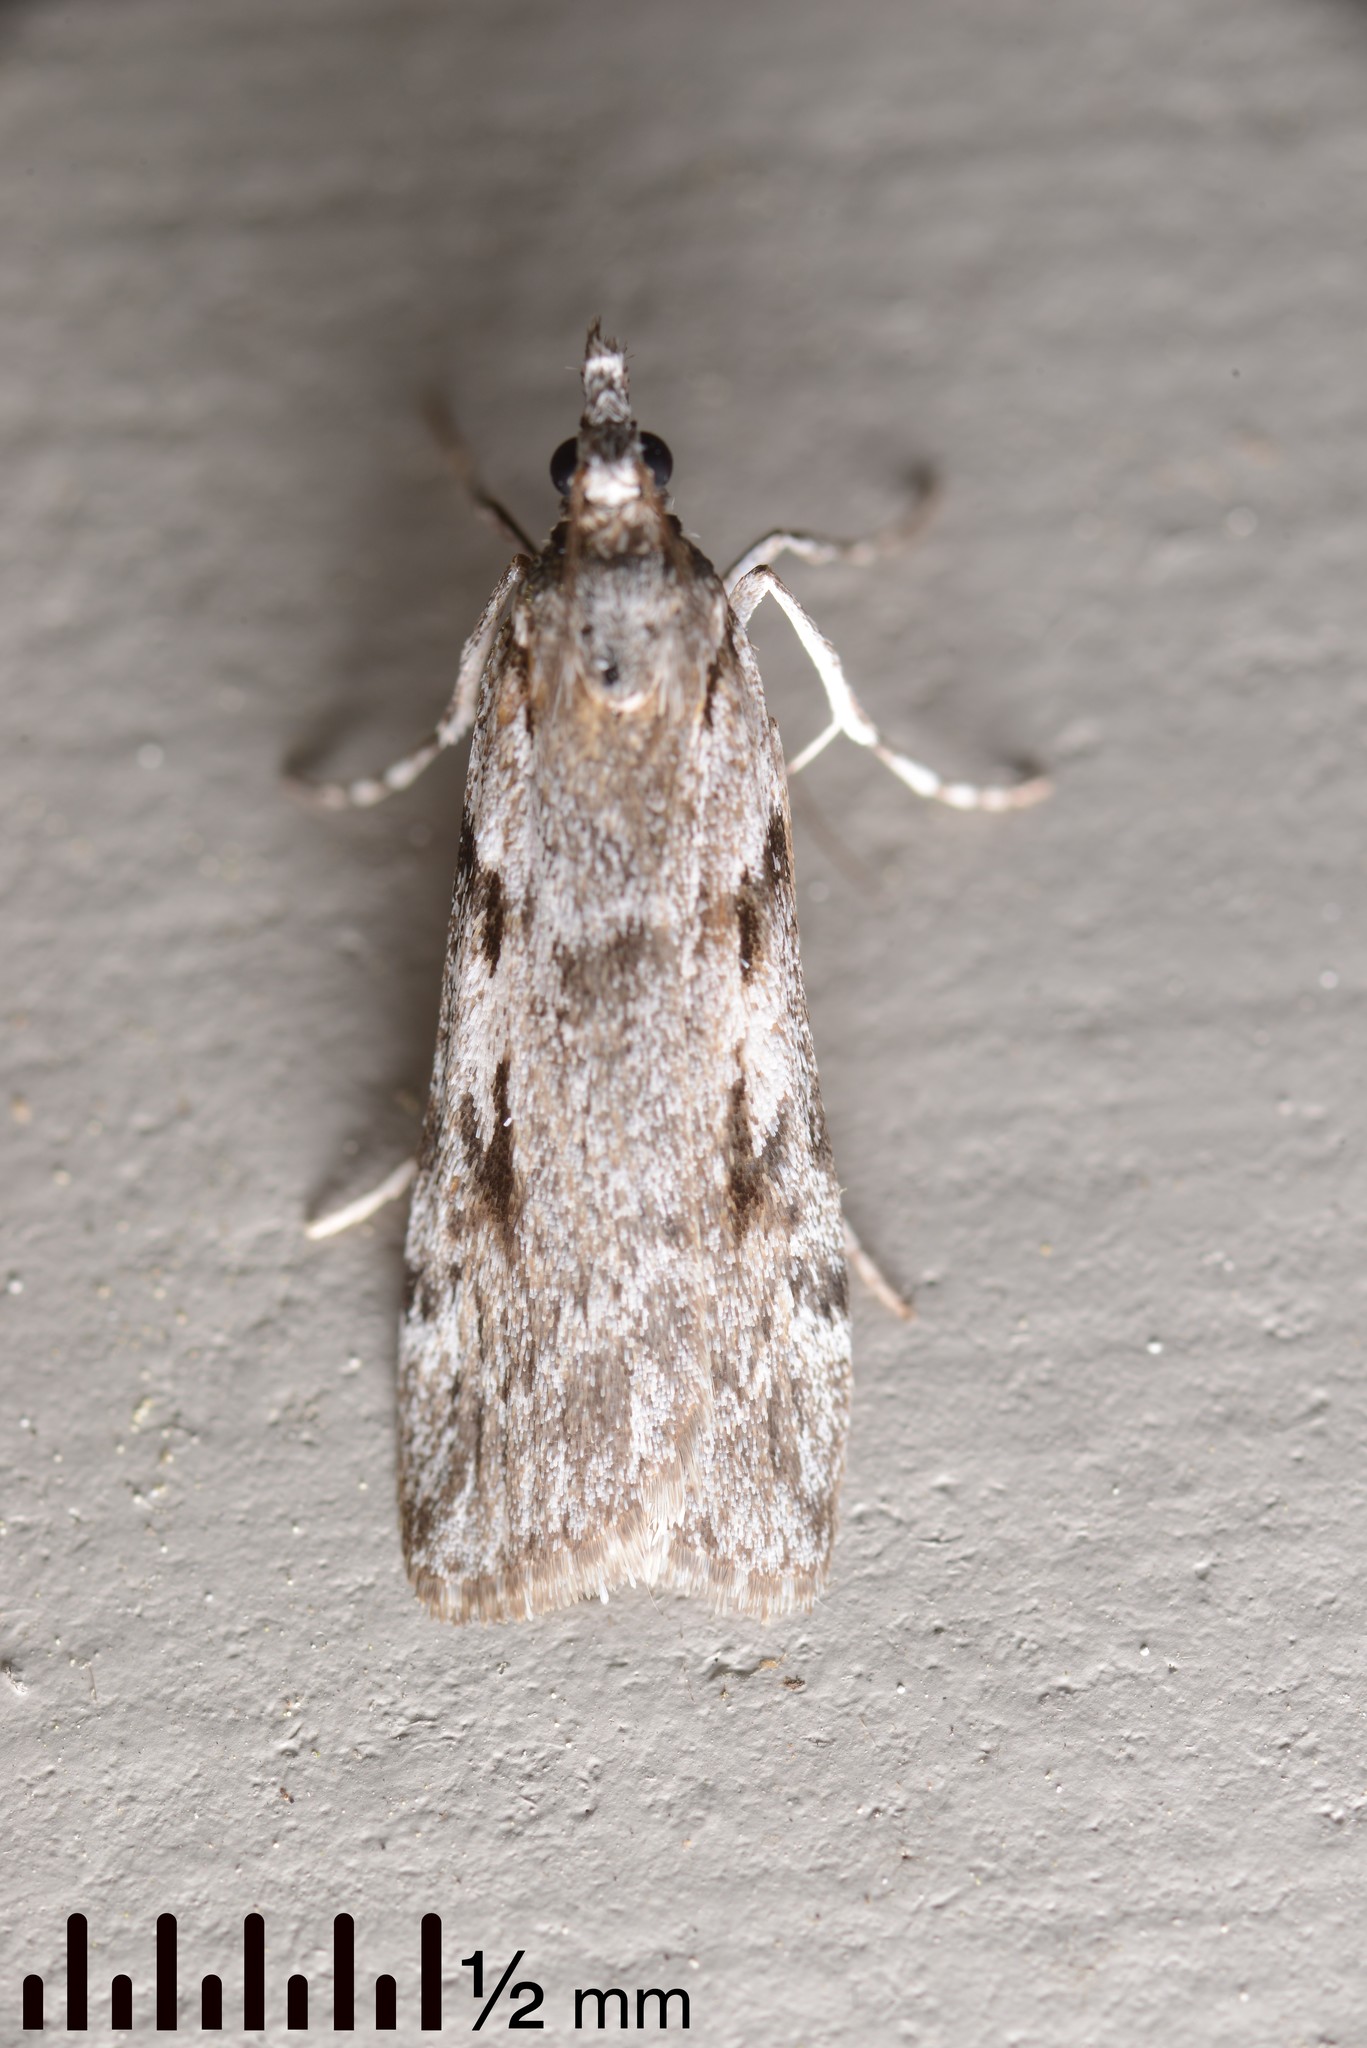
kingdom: Animalia
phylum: Arthropoda
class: Insecta
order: Lepidoptera
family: Crambidae
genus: Scoparia
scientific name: Scoparia halopis
